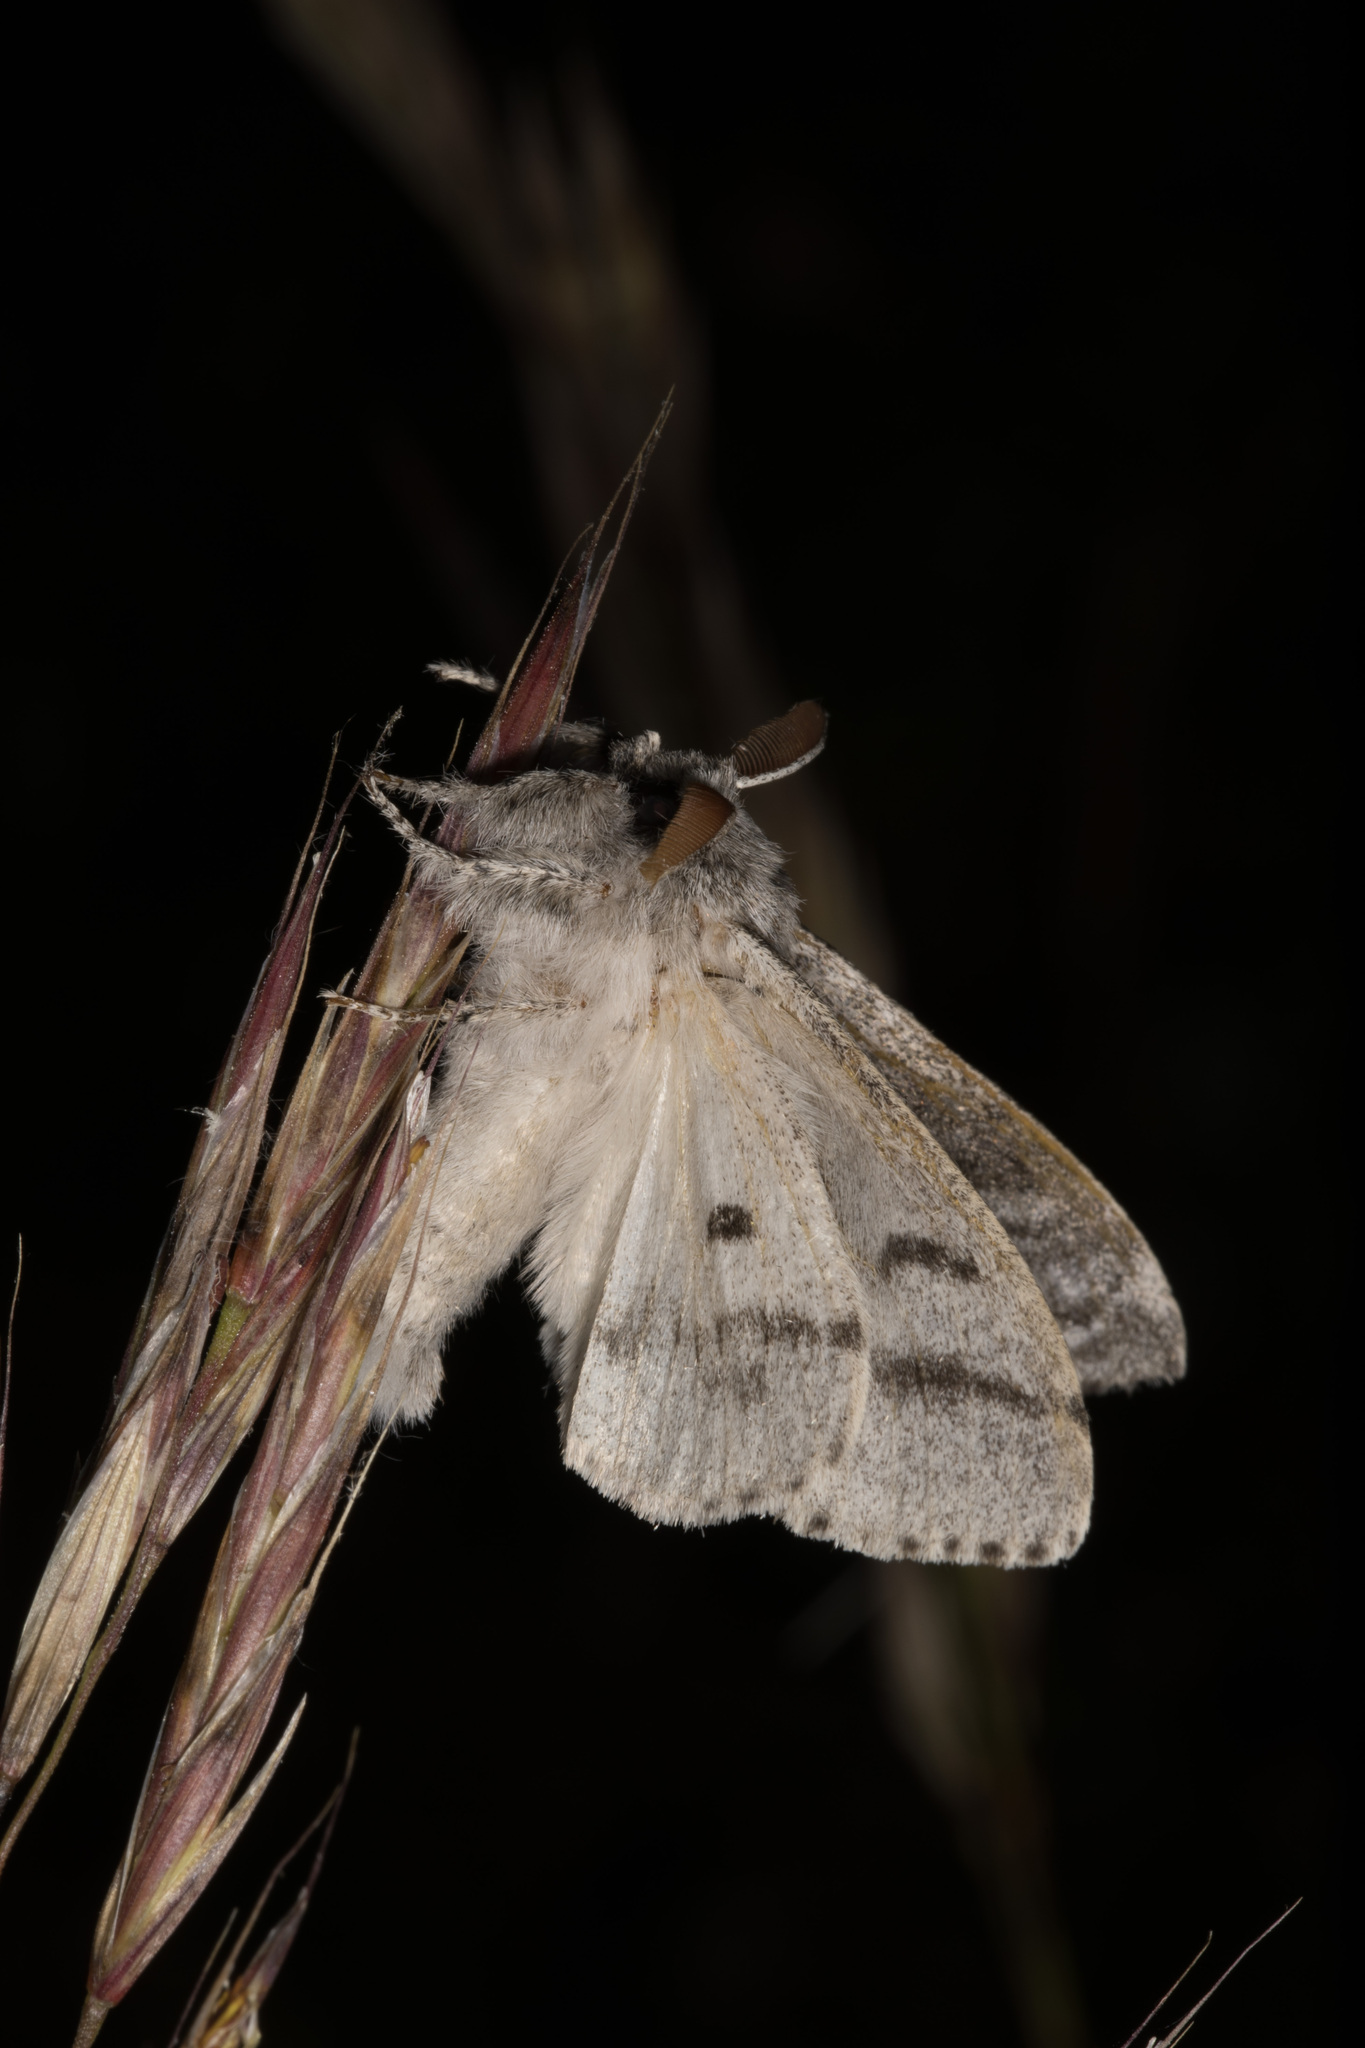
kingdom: Animalia
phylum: Arthropoda
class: Insecta
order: Lepidoptera
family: Erebidae
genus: Calliteara
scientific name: Calliteara pudibunda
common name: Pale tussock
